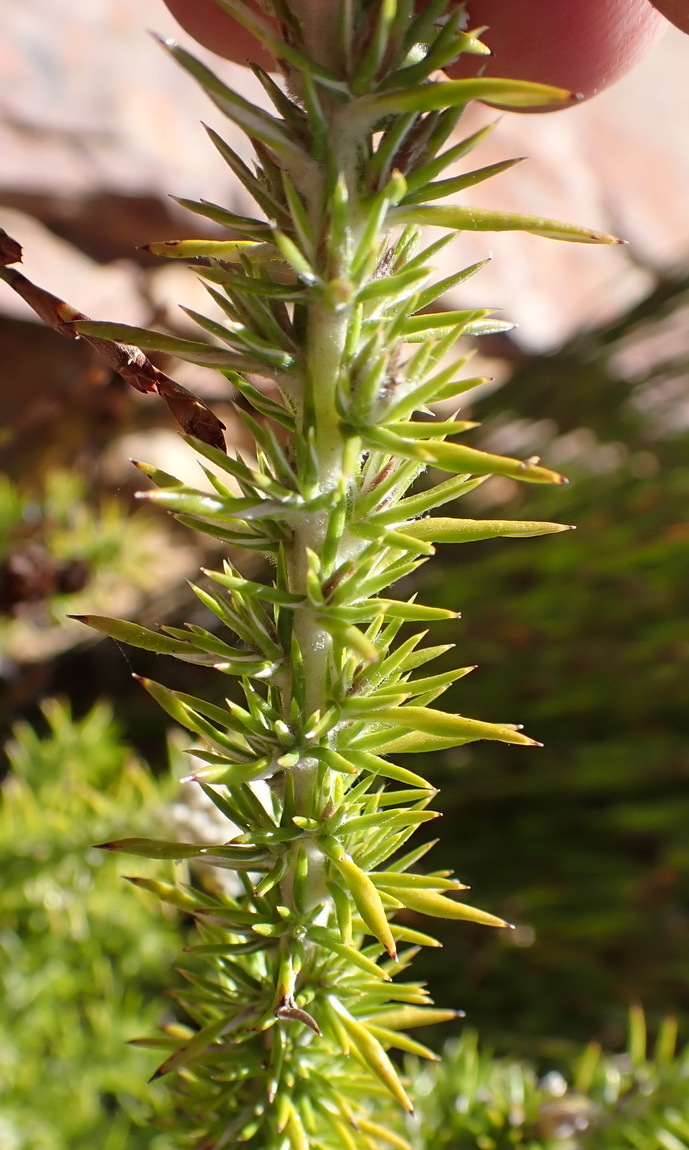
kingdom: Plantae
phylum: Tracheophyta
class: Magnoliopsida
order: Asterales
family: Asteraceae
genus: Metalasia
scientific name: Metalasia trivialis
